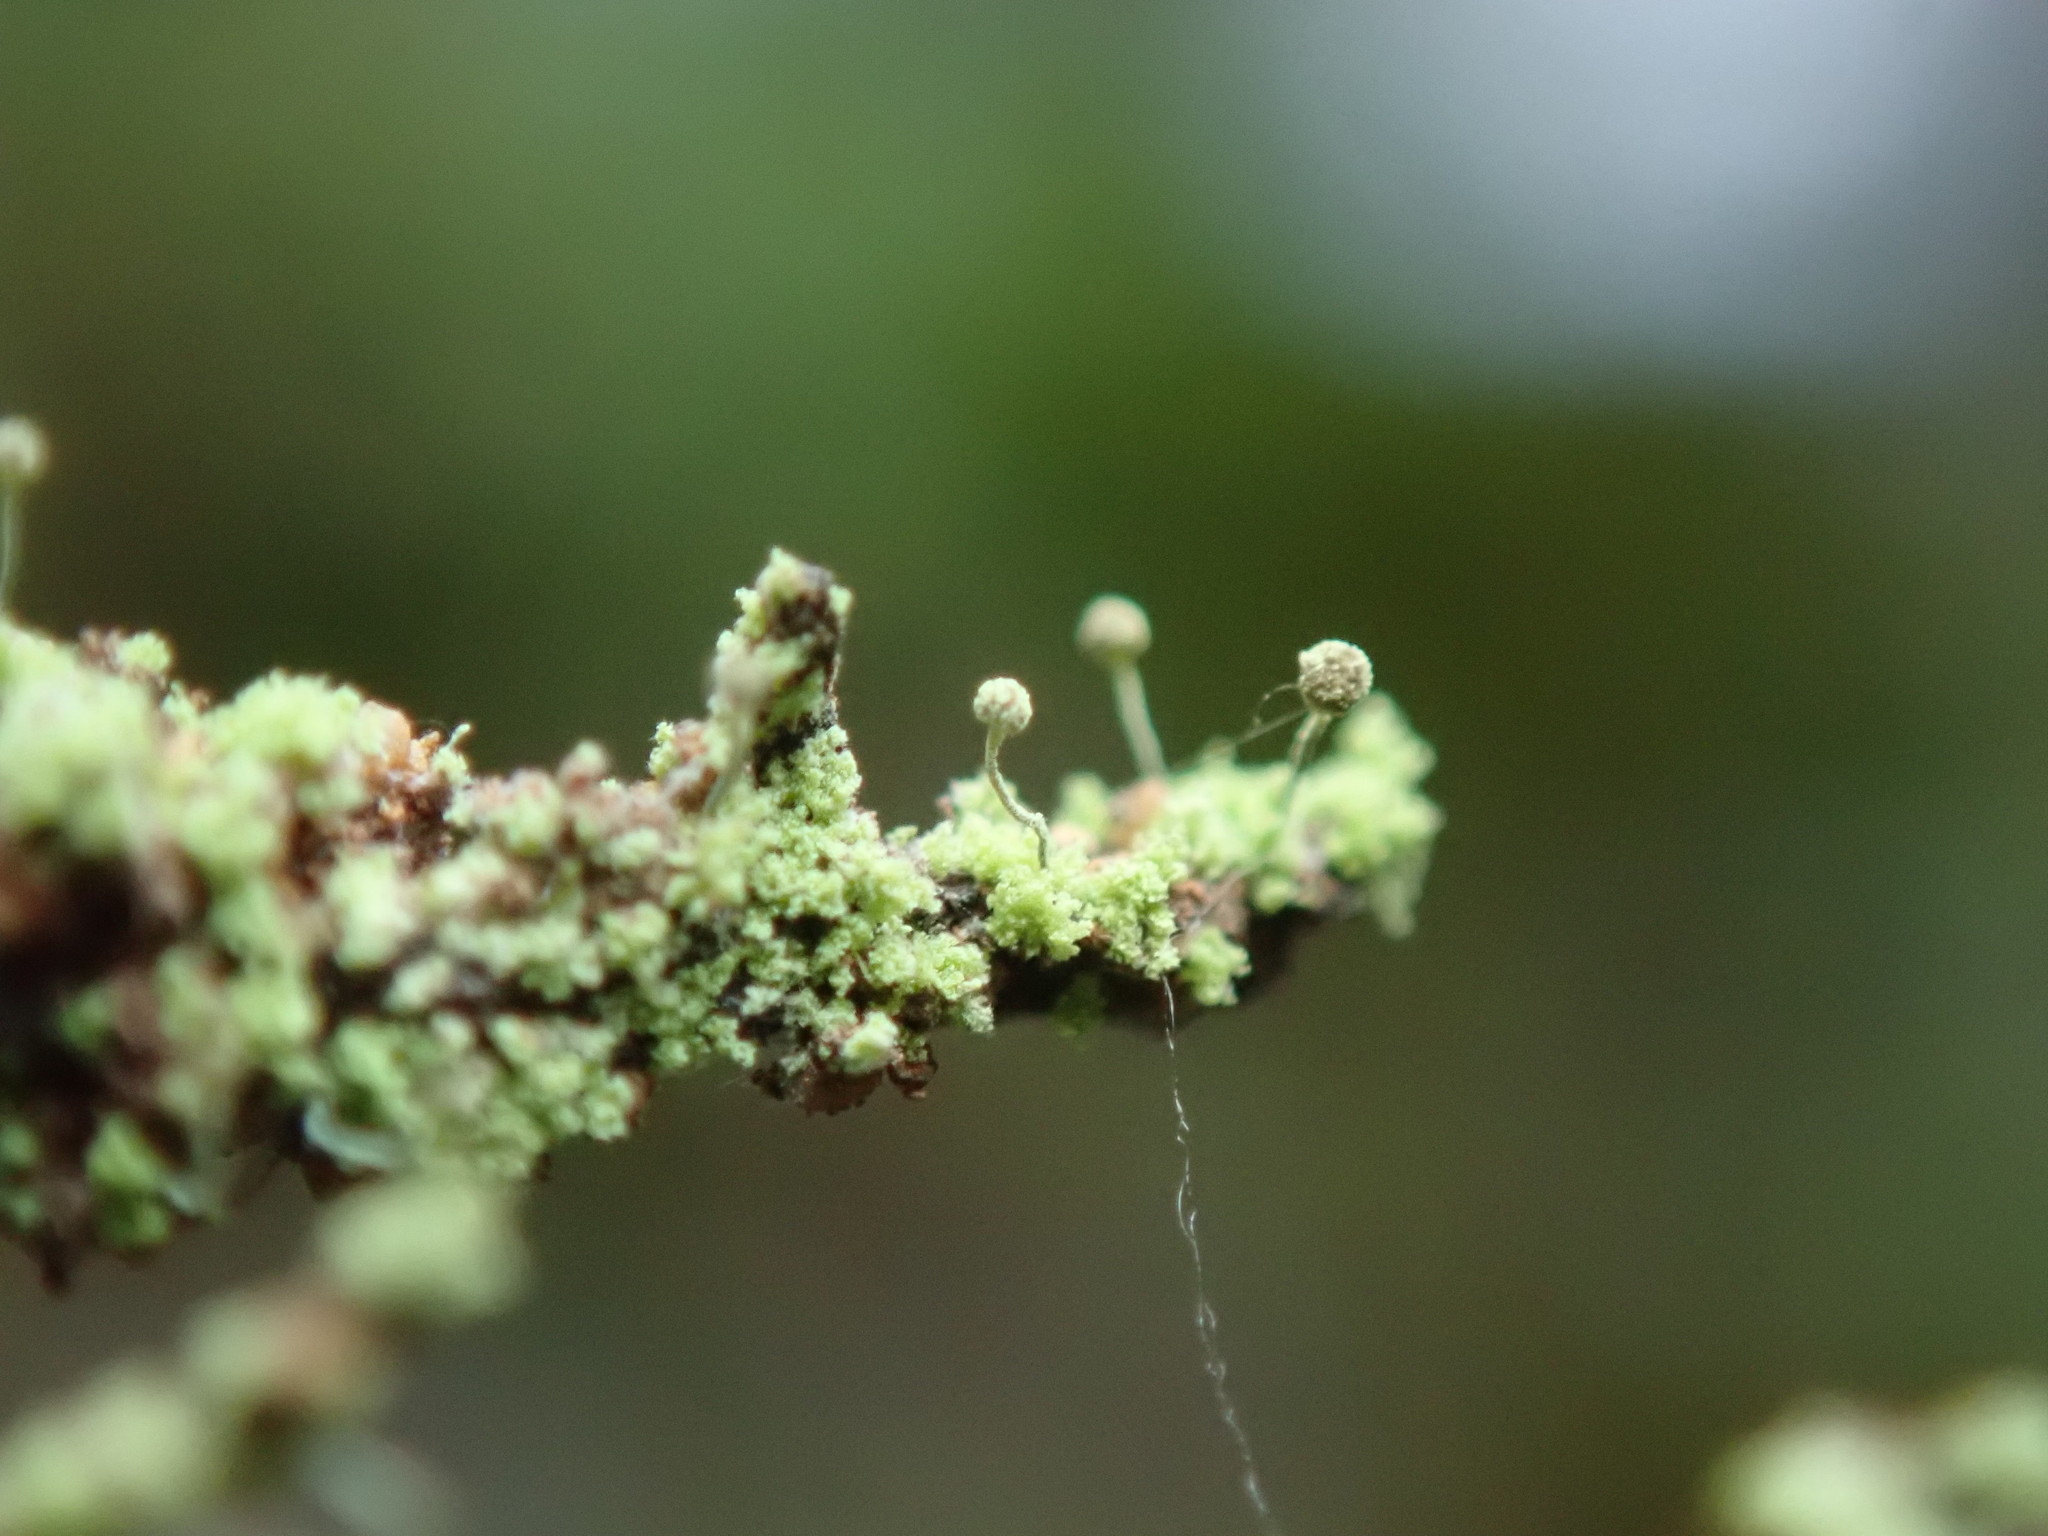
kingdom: Fungi
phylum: Ascomycota
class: Coniocybomycetes
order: Coniocybales
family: Coniocybaceae
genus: Chaenotheca
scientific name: Chaenotheca furfuracea
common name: Sulphur stubble lichen
